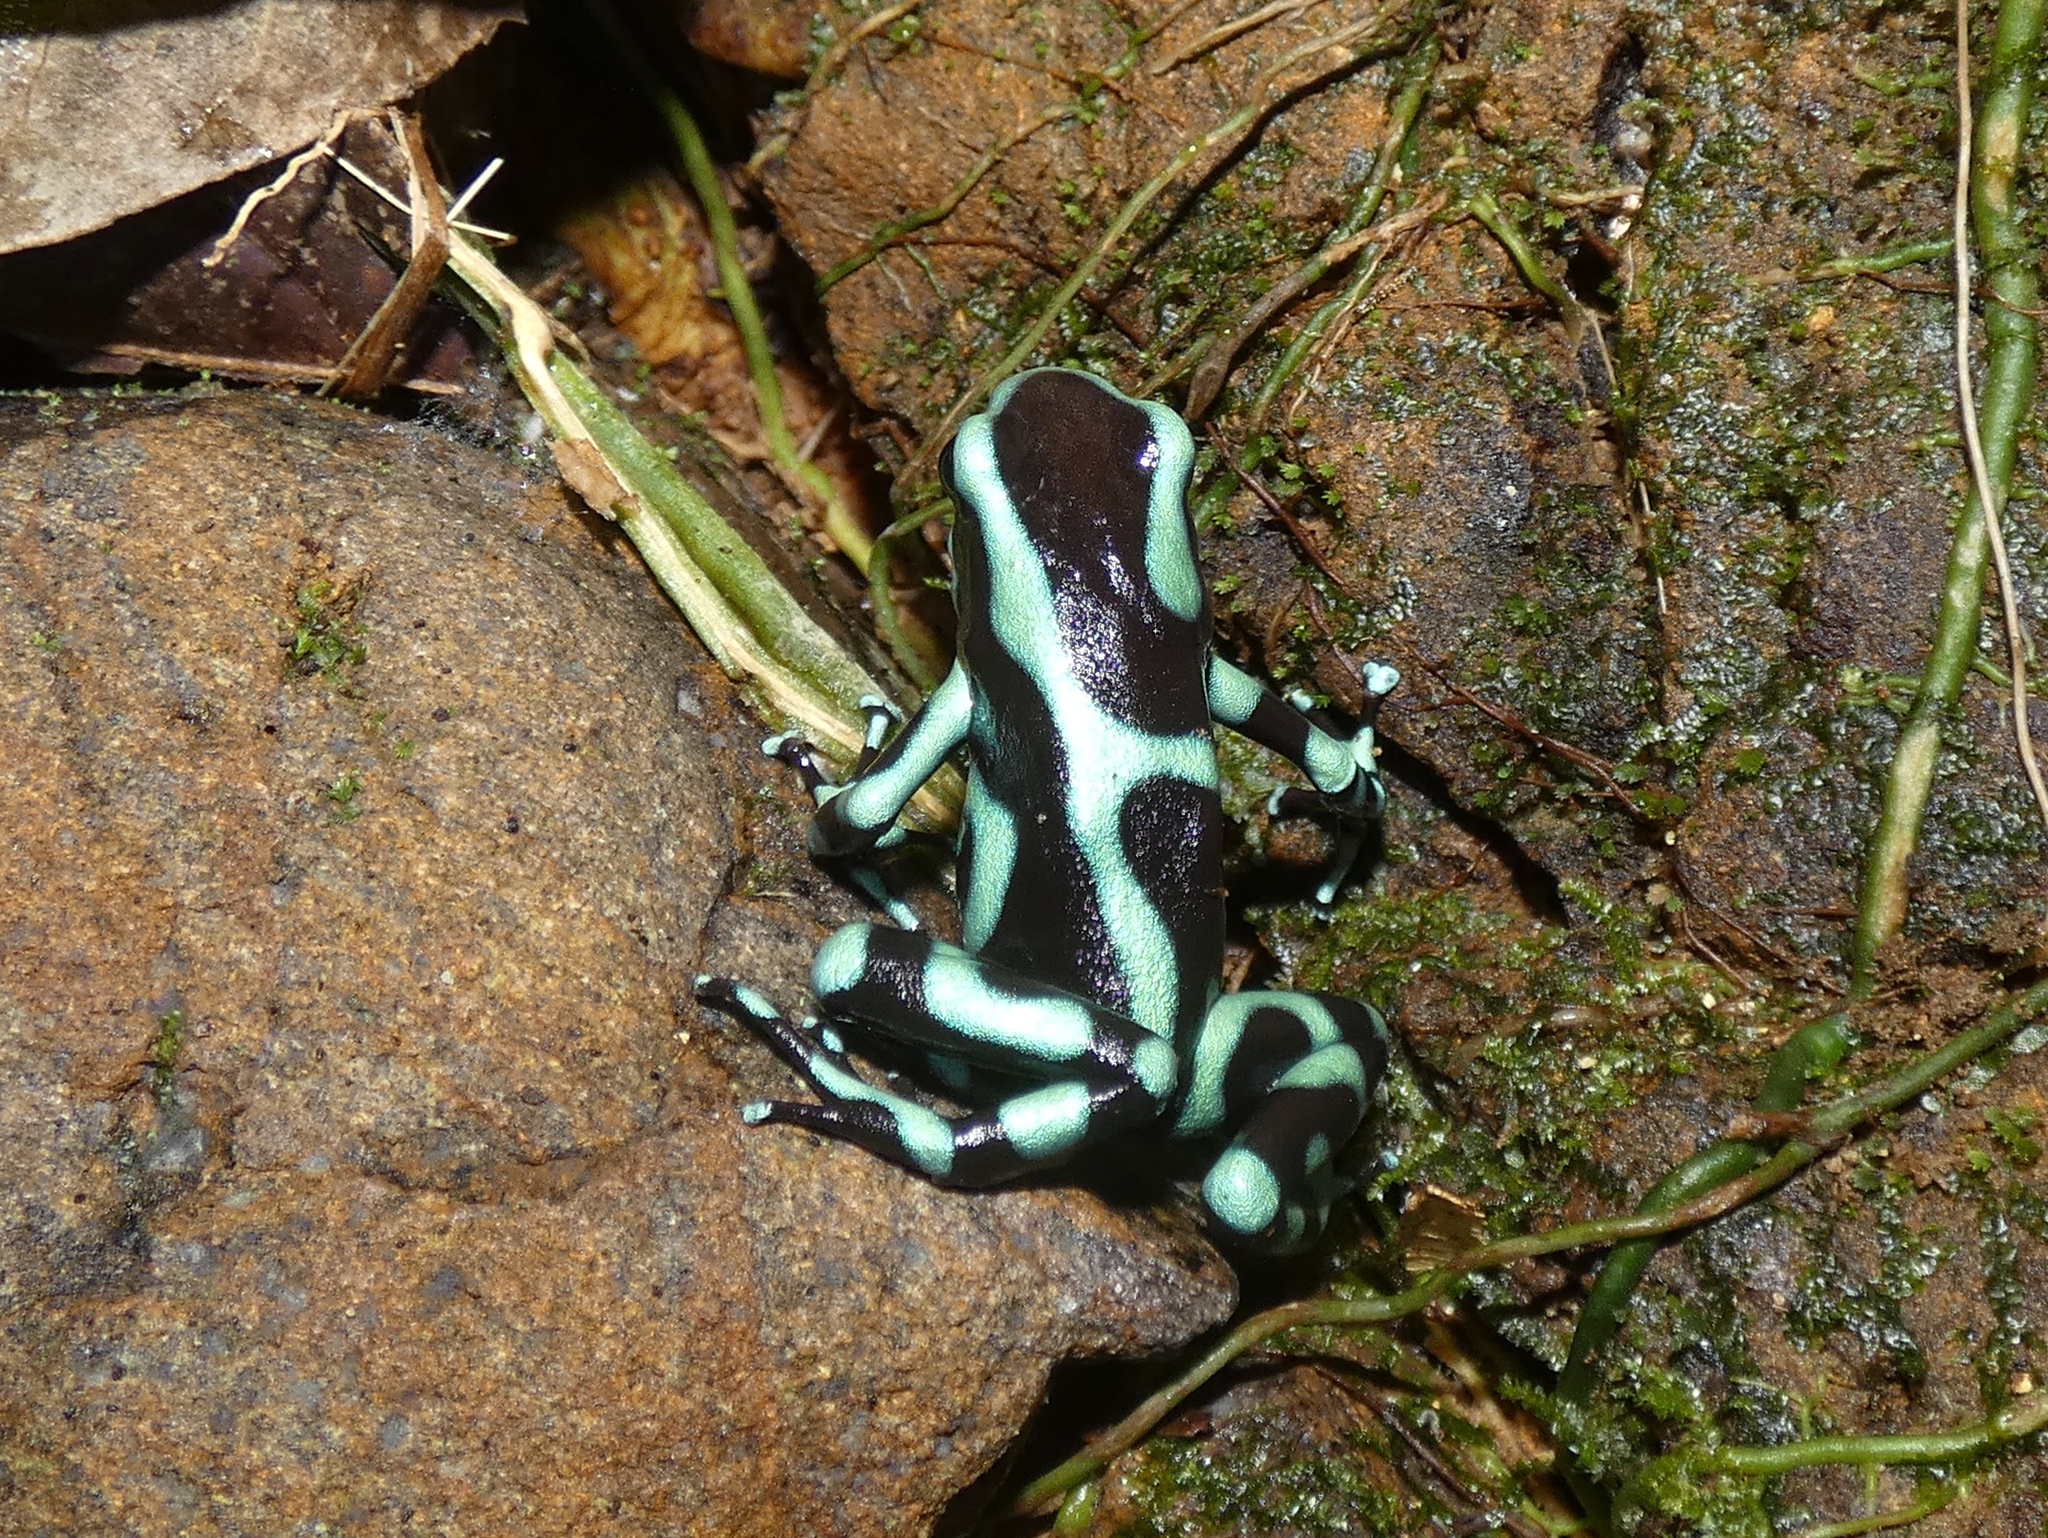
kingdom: Animalia
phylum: Chordata
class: Amphibia
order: Anura
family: Dendrobatidae
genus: Dendrobates
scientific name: Dendrobates auratus
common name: Green and black poison dart frog
